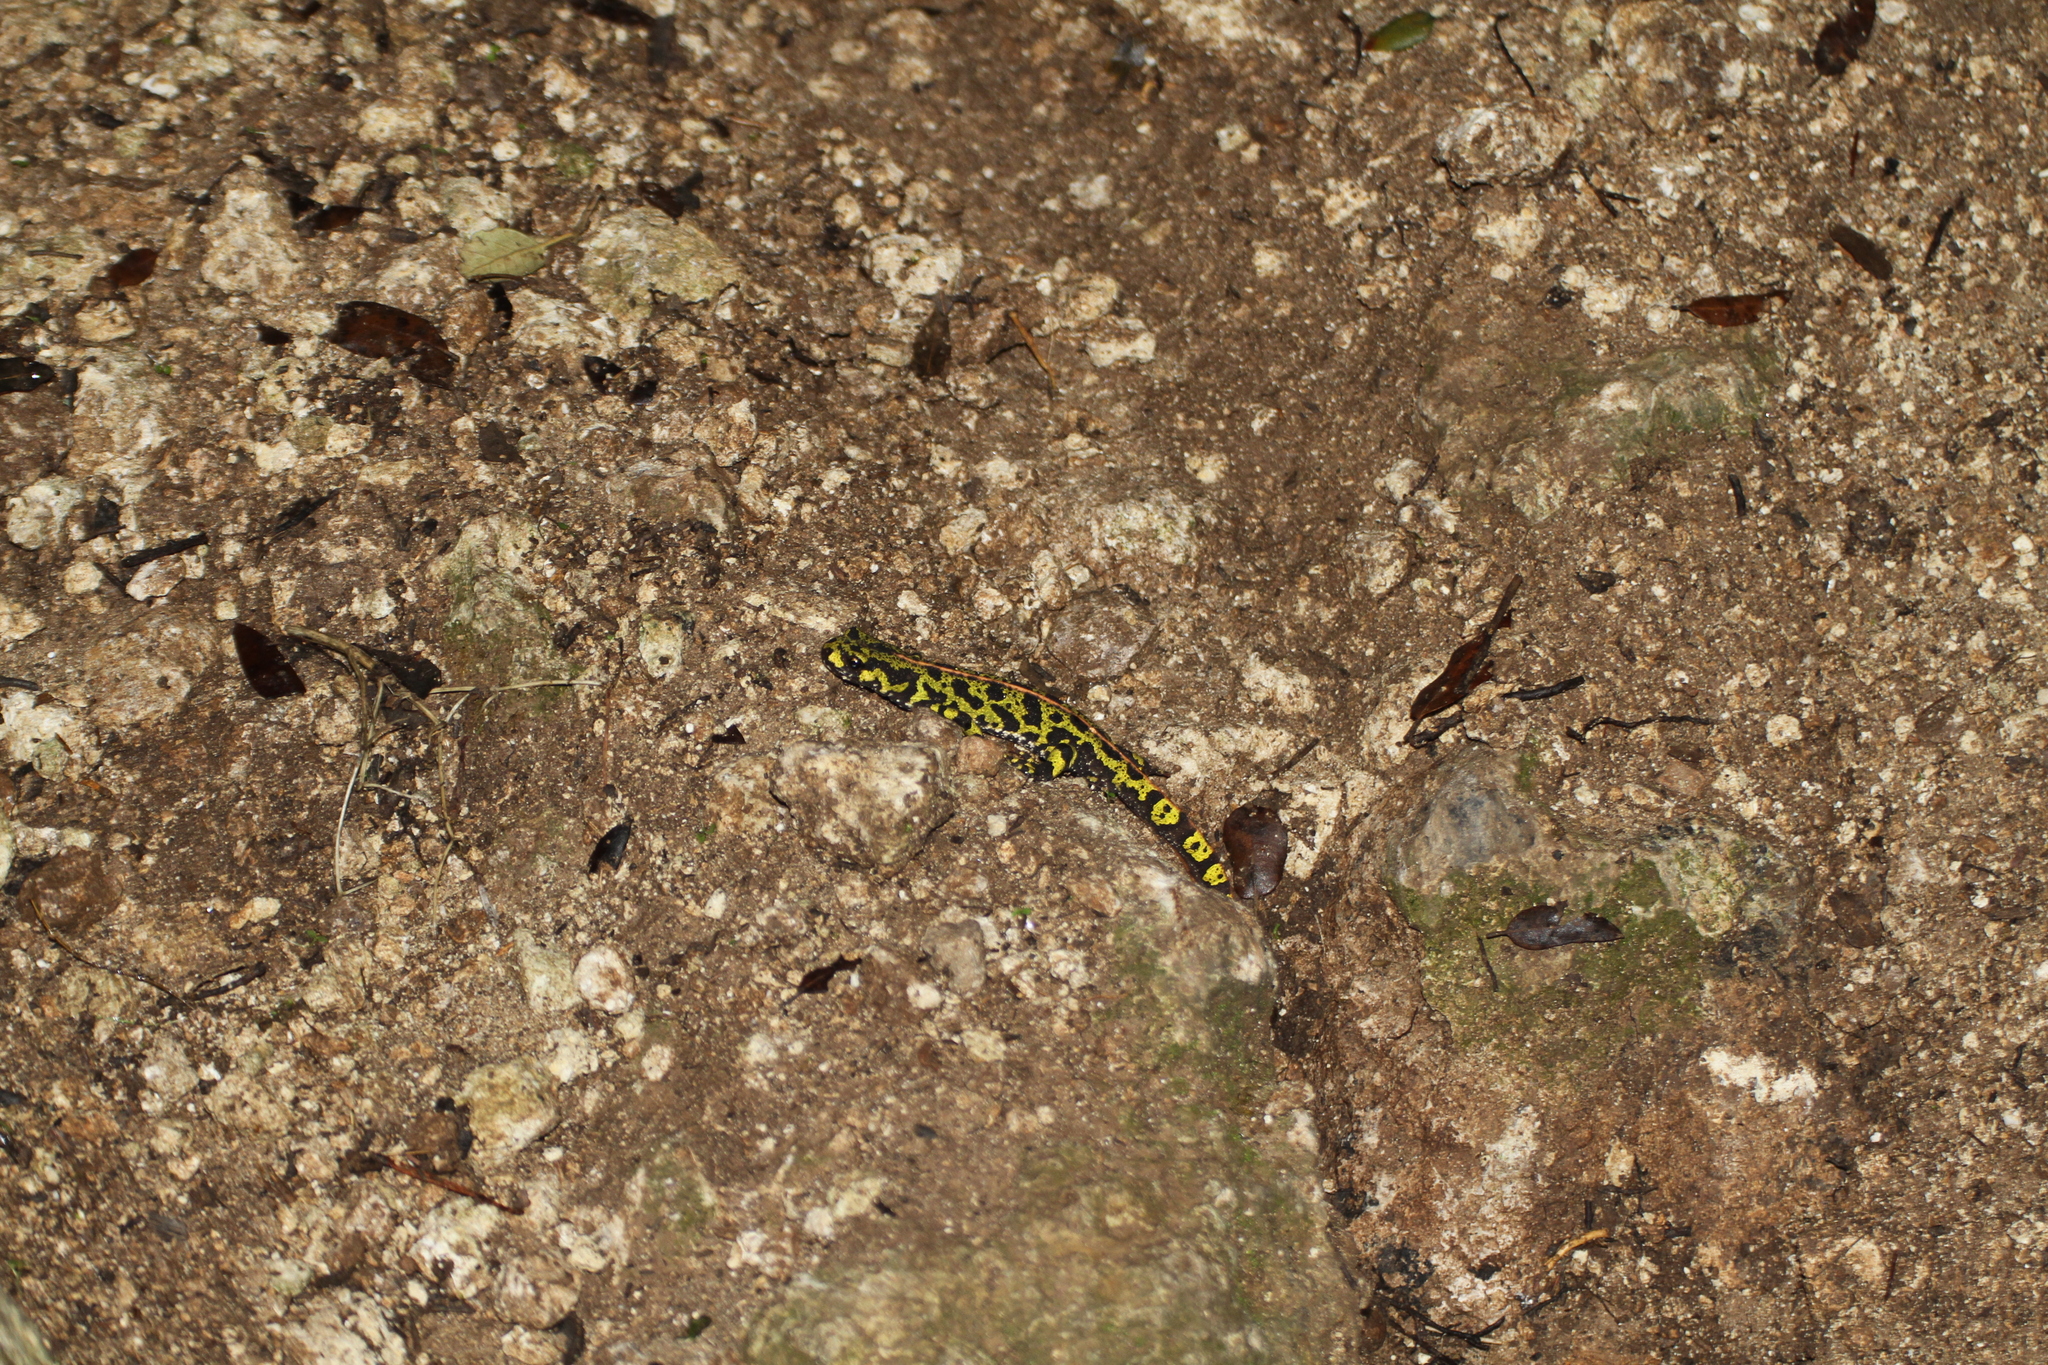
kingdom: Animalia
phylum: Chordata
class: Amphibia
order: Caudata
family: Salamandridae
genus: Triturus
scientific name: Triturus marmoratus
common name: Marbled newt
